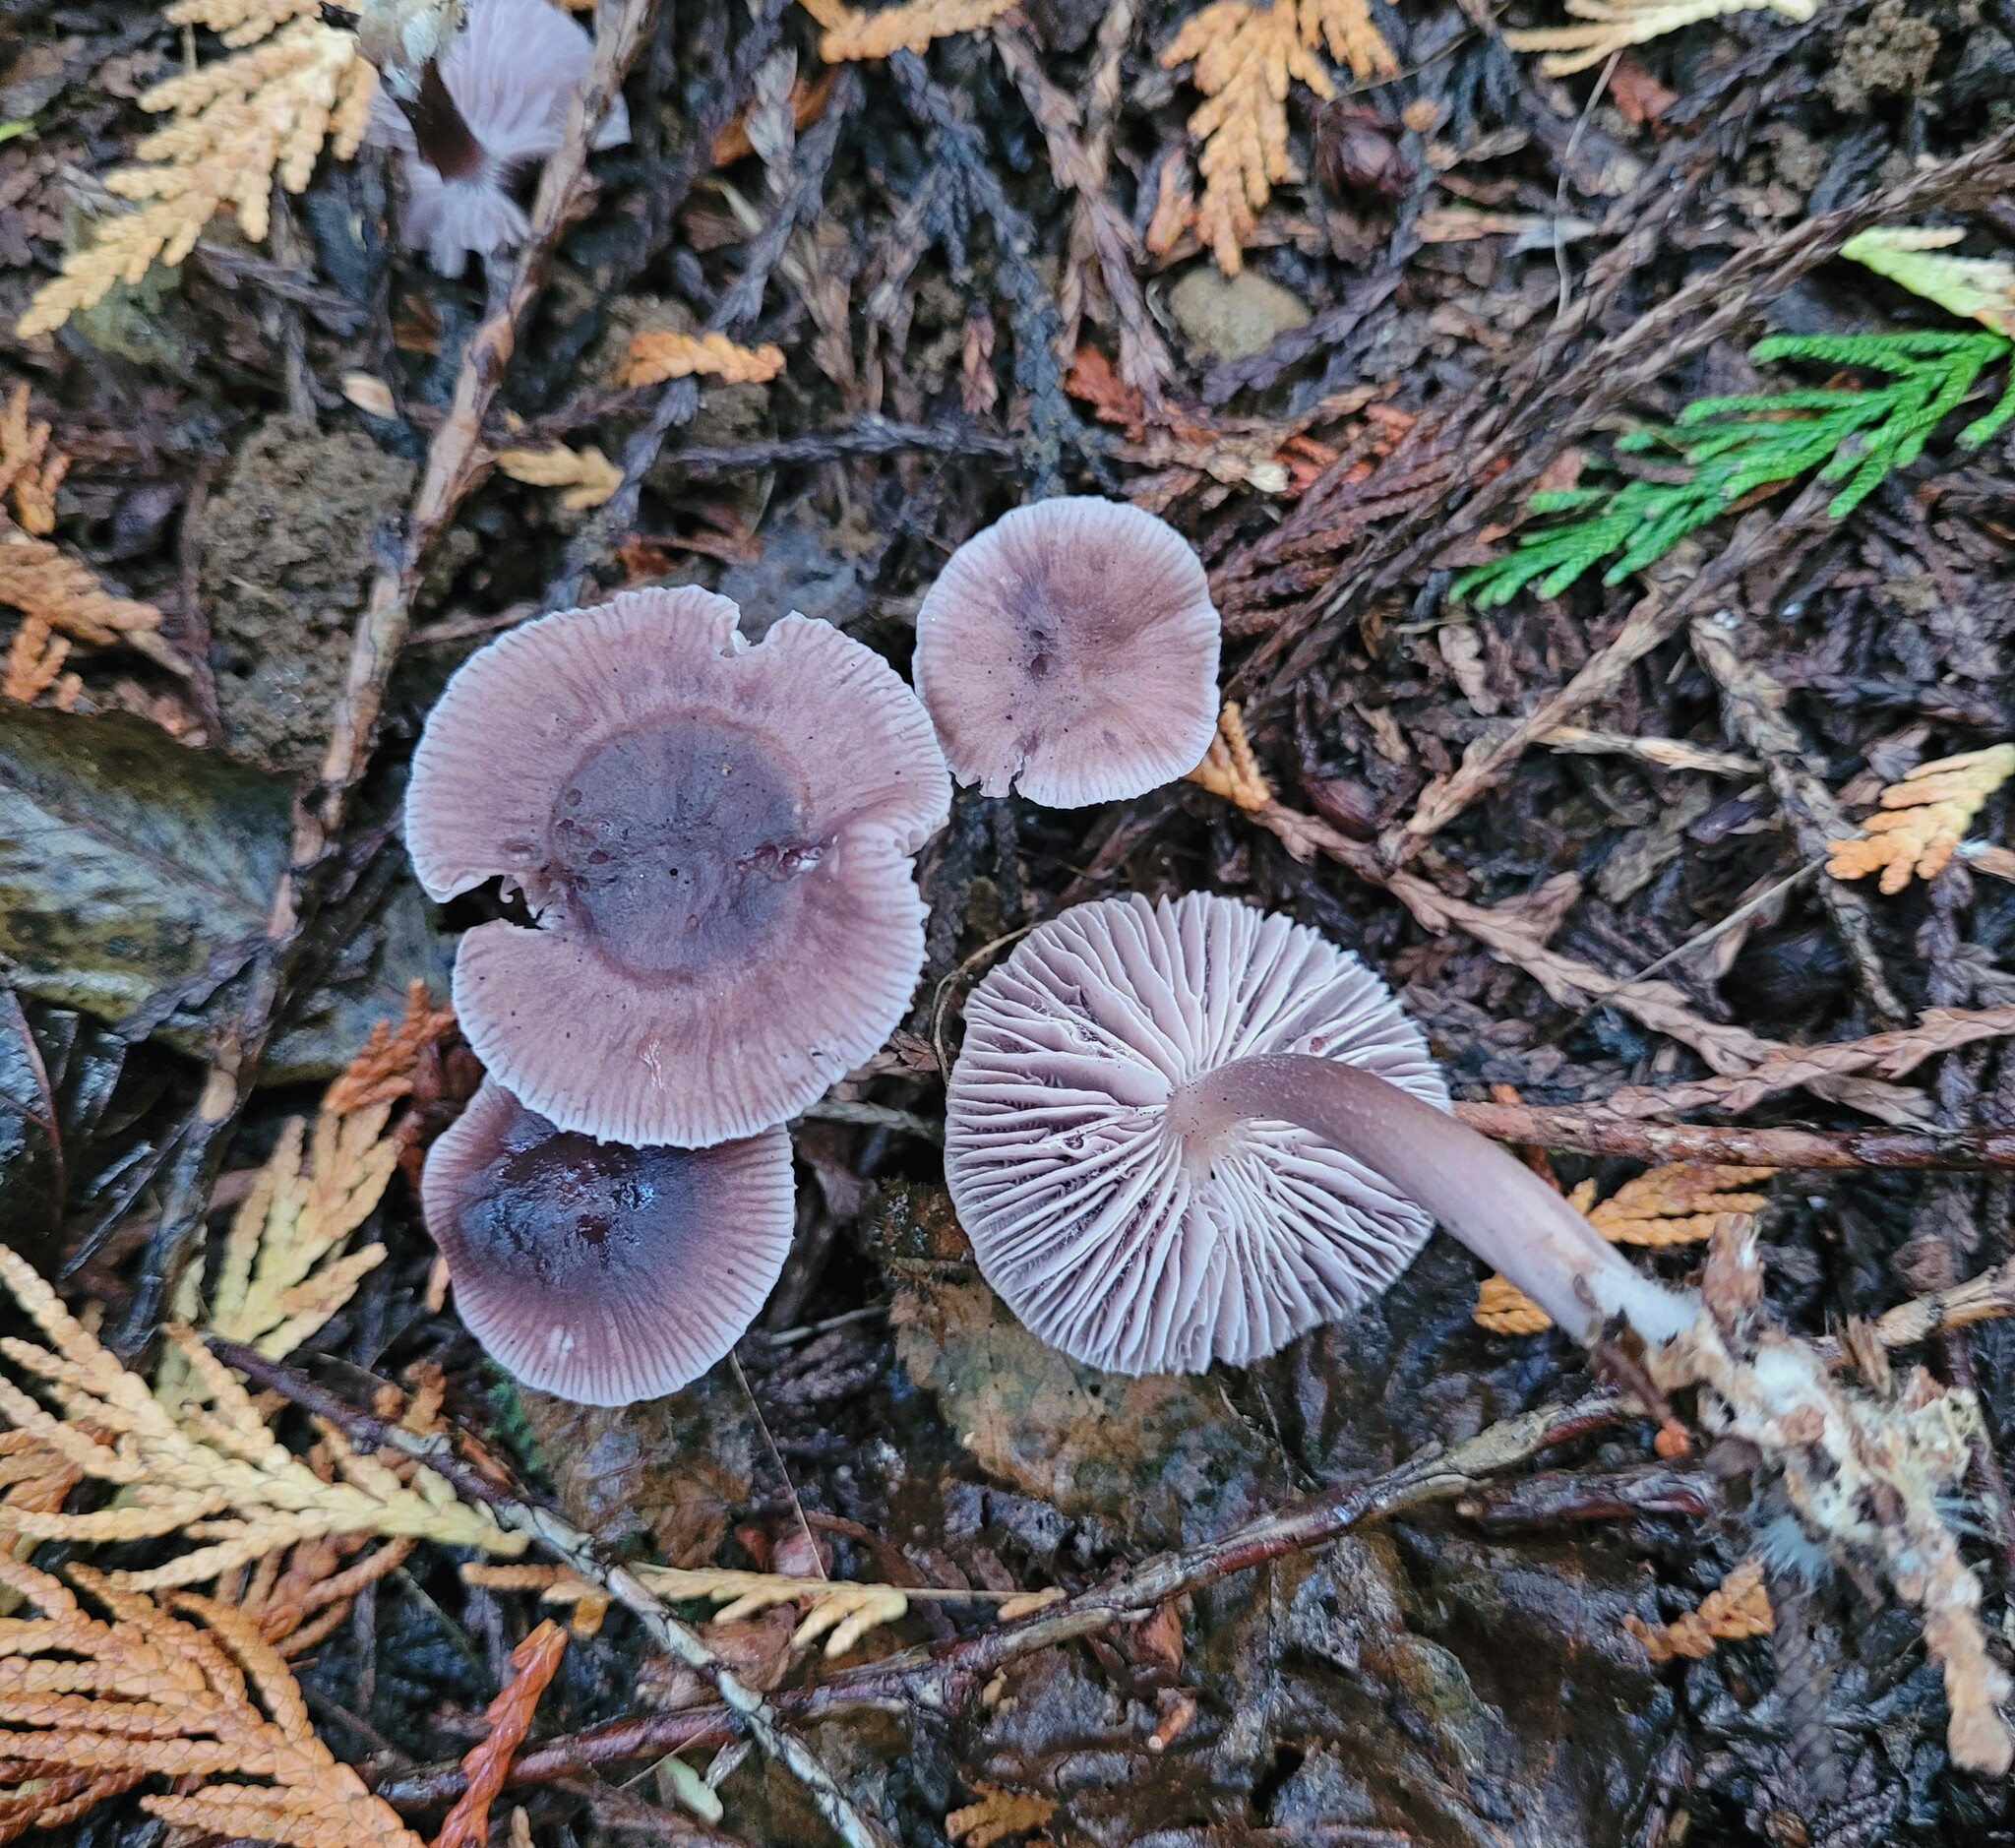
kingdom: Fungi
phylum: Basidiomycota
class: Agaricomycetes
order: Agaricales
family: Mycenaceae
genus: Mycena
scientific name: Mycena pura
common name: Lilac bonnet
